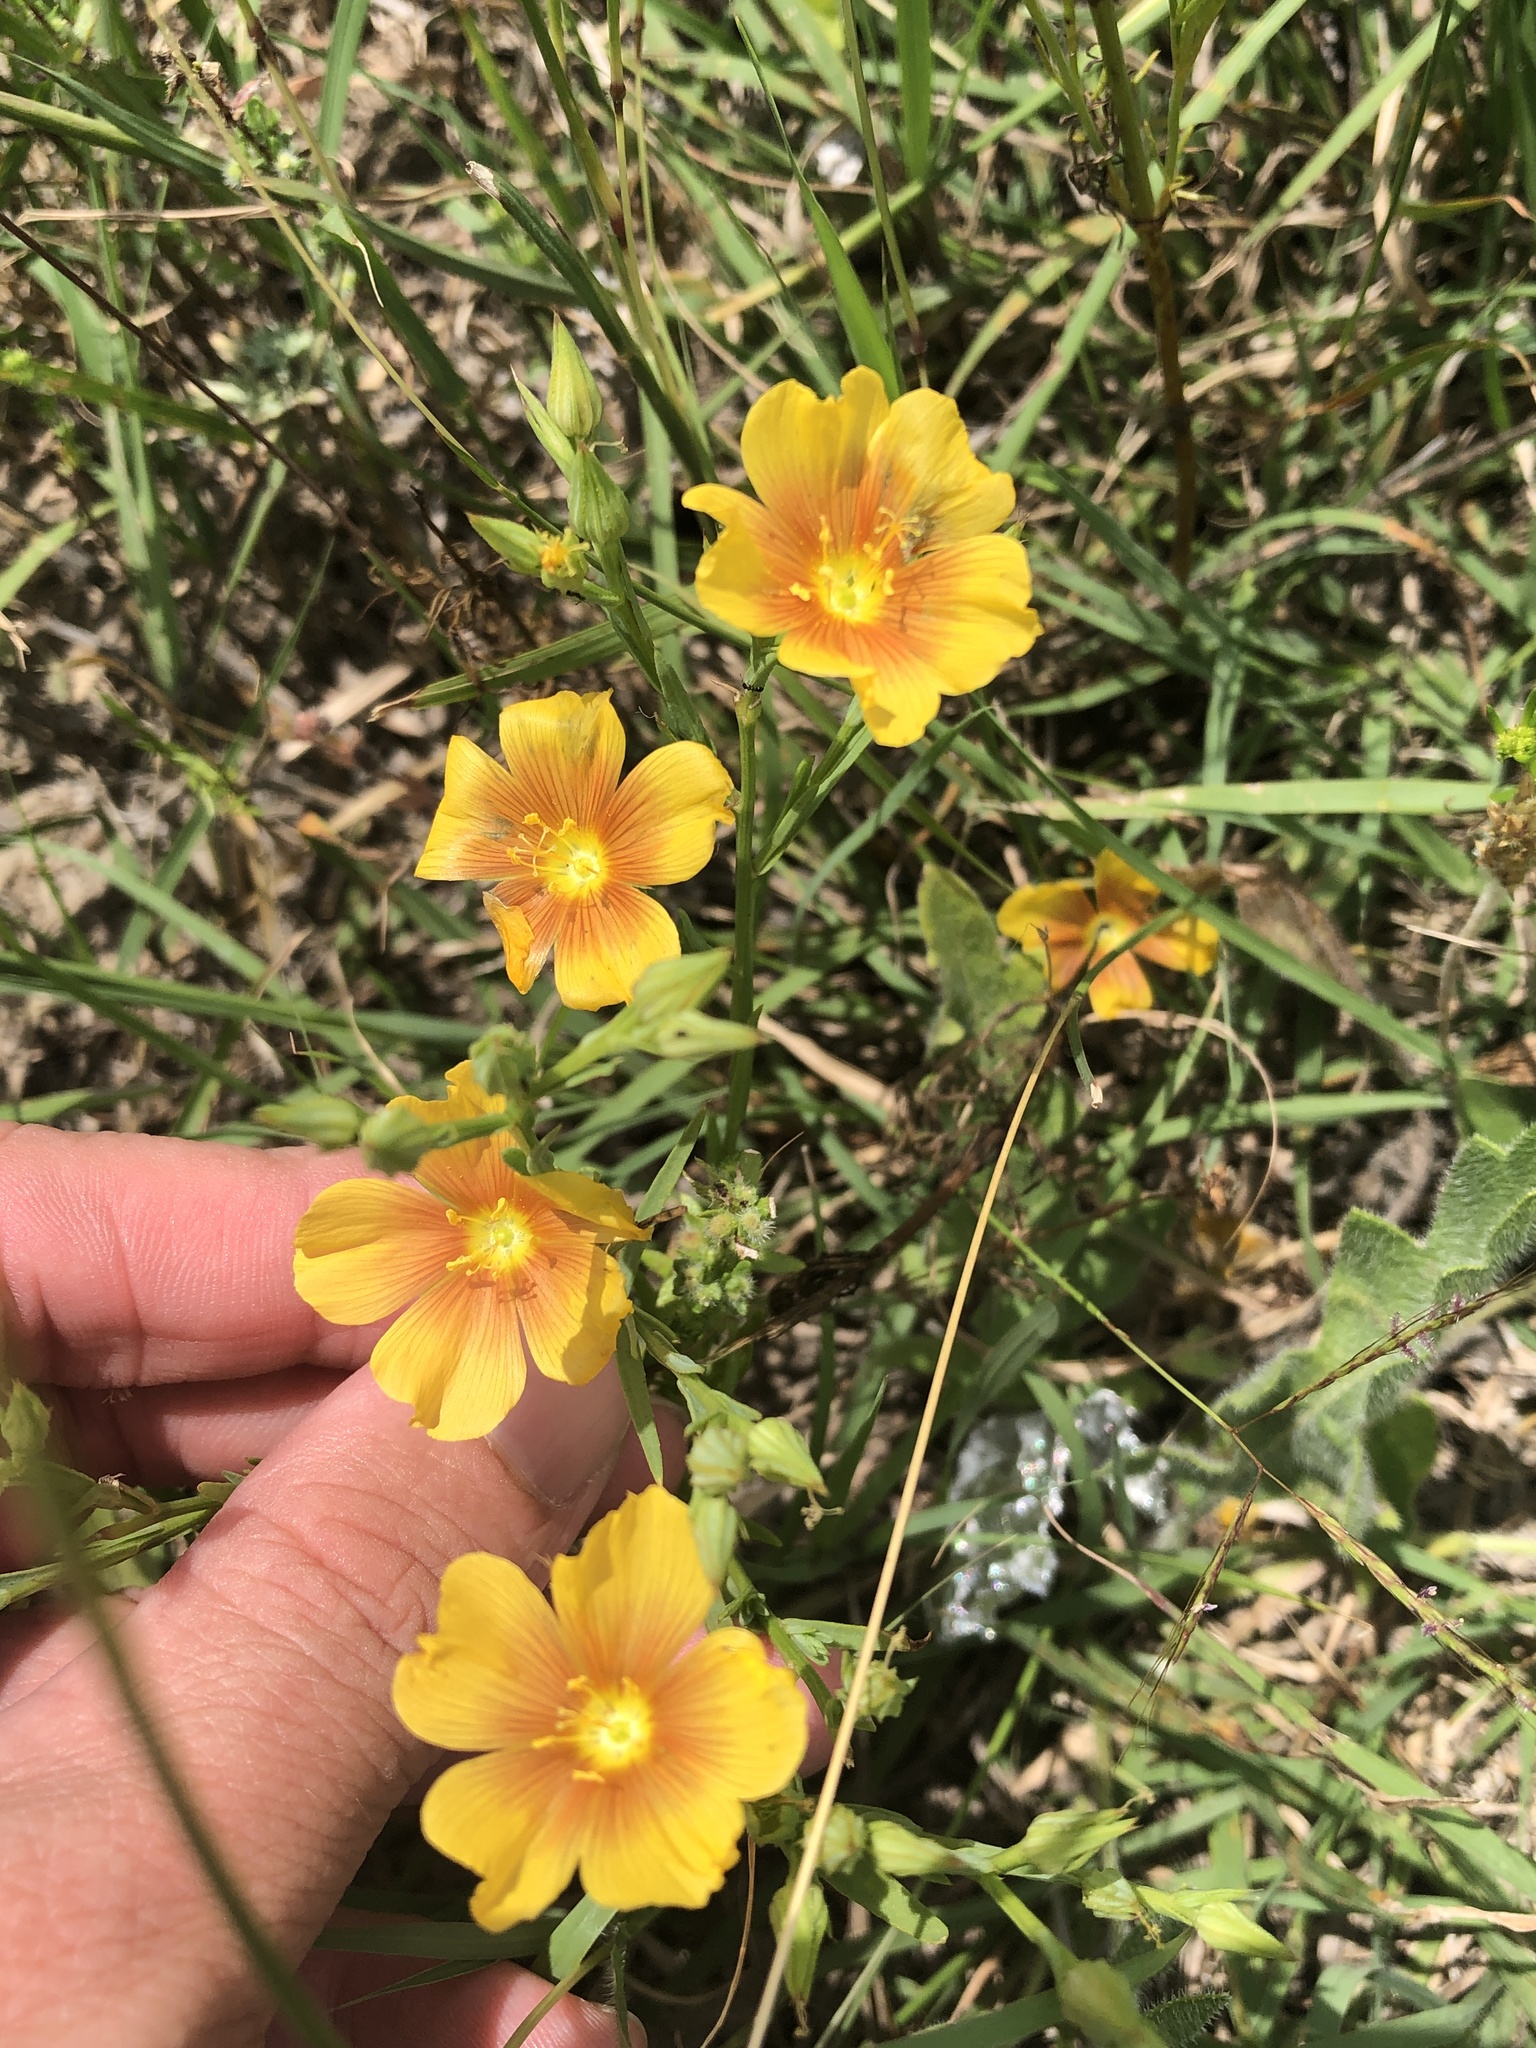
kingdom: Plantae
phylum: Tracheophyta
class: Magnoliopsida
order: Malpighiales
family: Linaceae
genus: Linum
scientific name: Linum rigidum
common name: Stiff-stem flax
